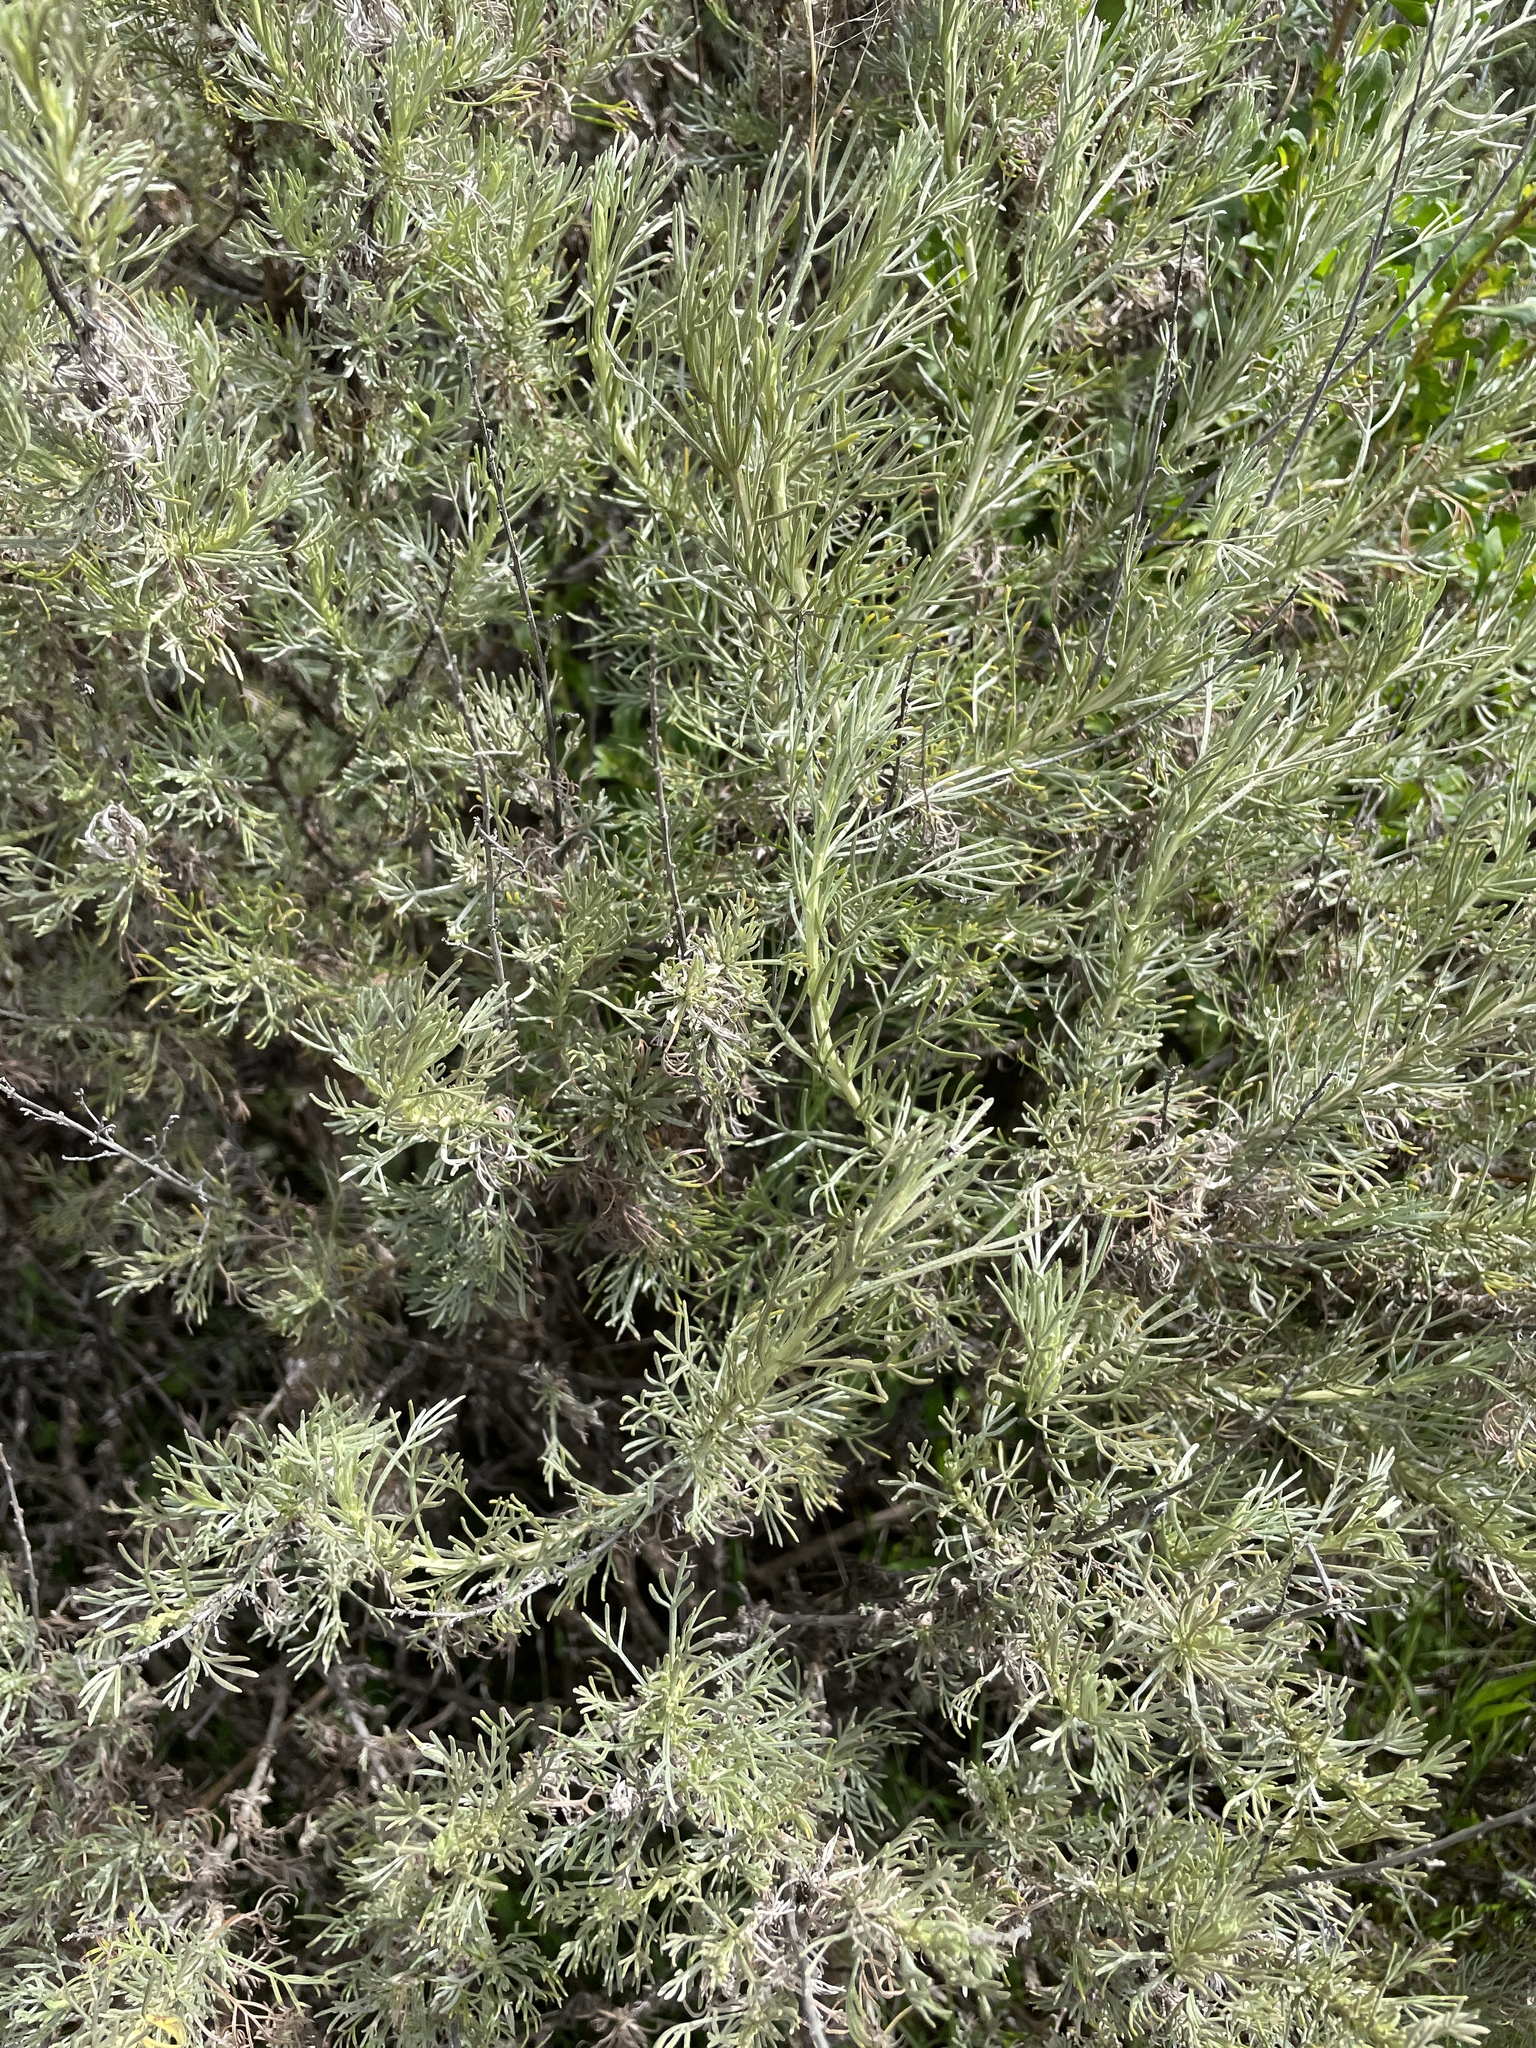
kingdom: Plantae
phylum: Tracheophyta
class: Magnoliopsida
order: Asterales
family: Asteraceae
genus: Artemisia
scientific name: Artemisia californica
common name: California sagebrush
